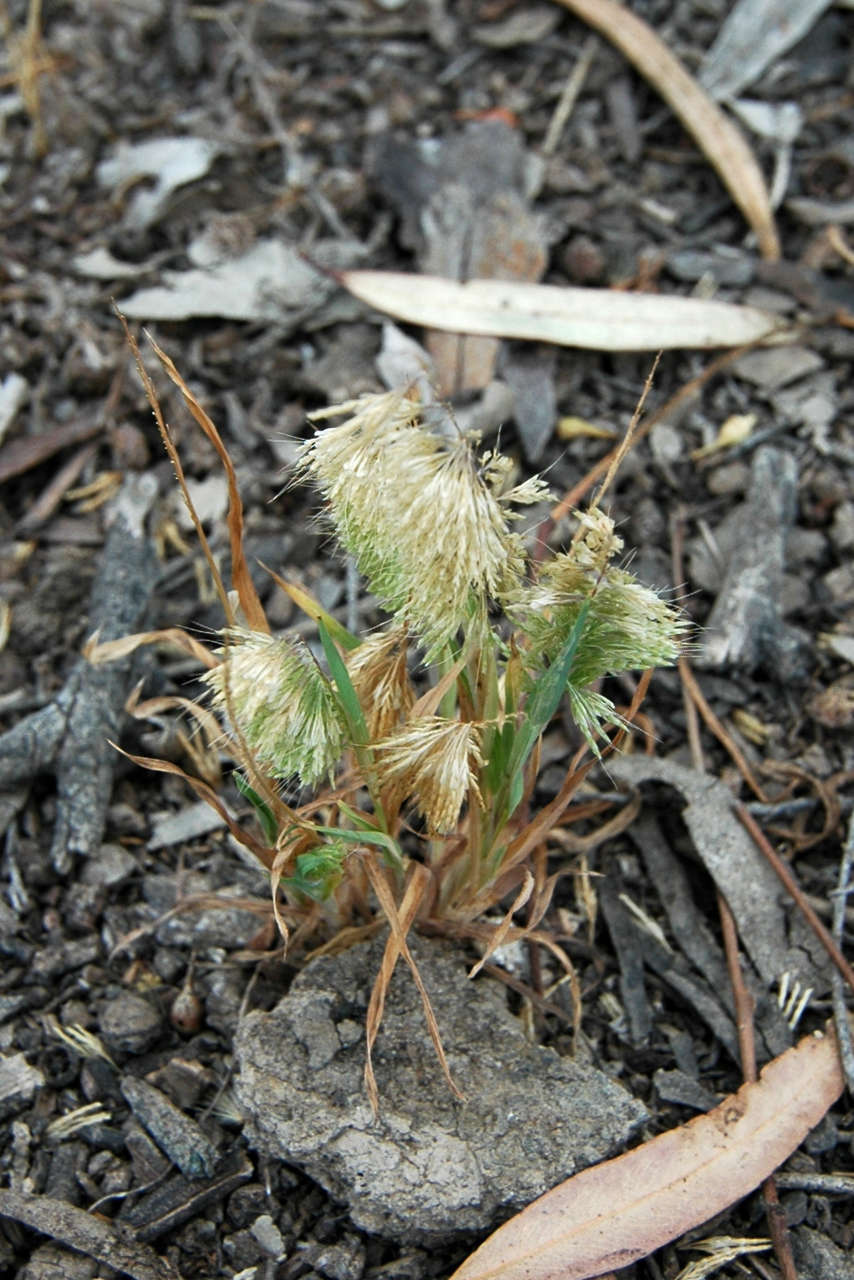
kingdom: Plantae
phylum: Tracheophyta
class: Liliopsida
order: Poales
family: Poaceae
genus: Lamarckia
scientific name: Lamarckia aurea
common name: Golden dog's-tail
